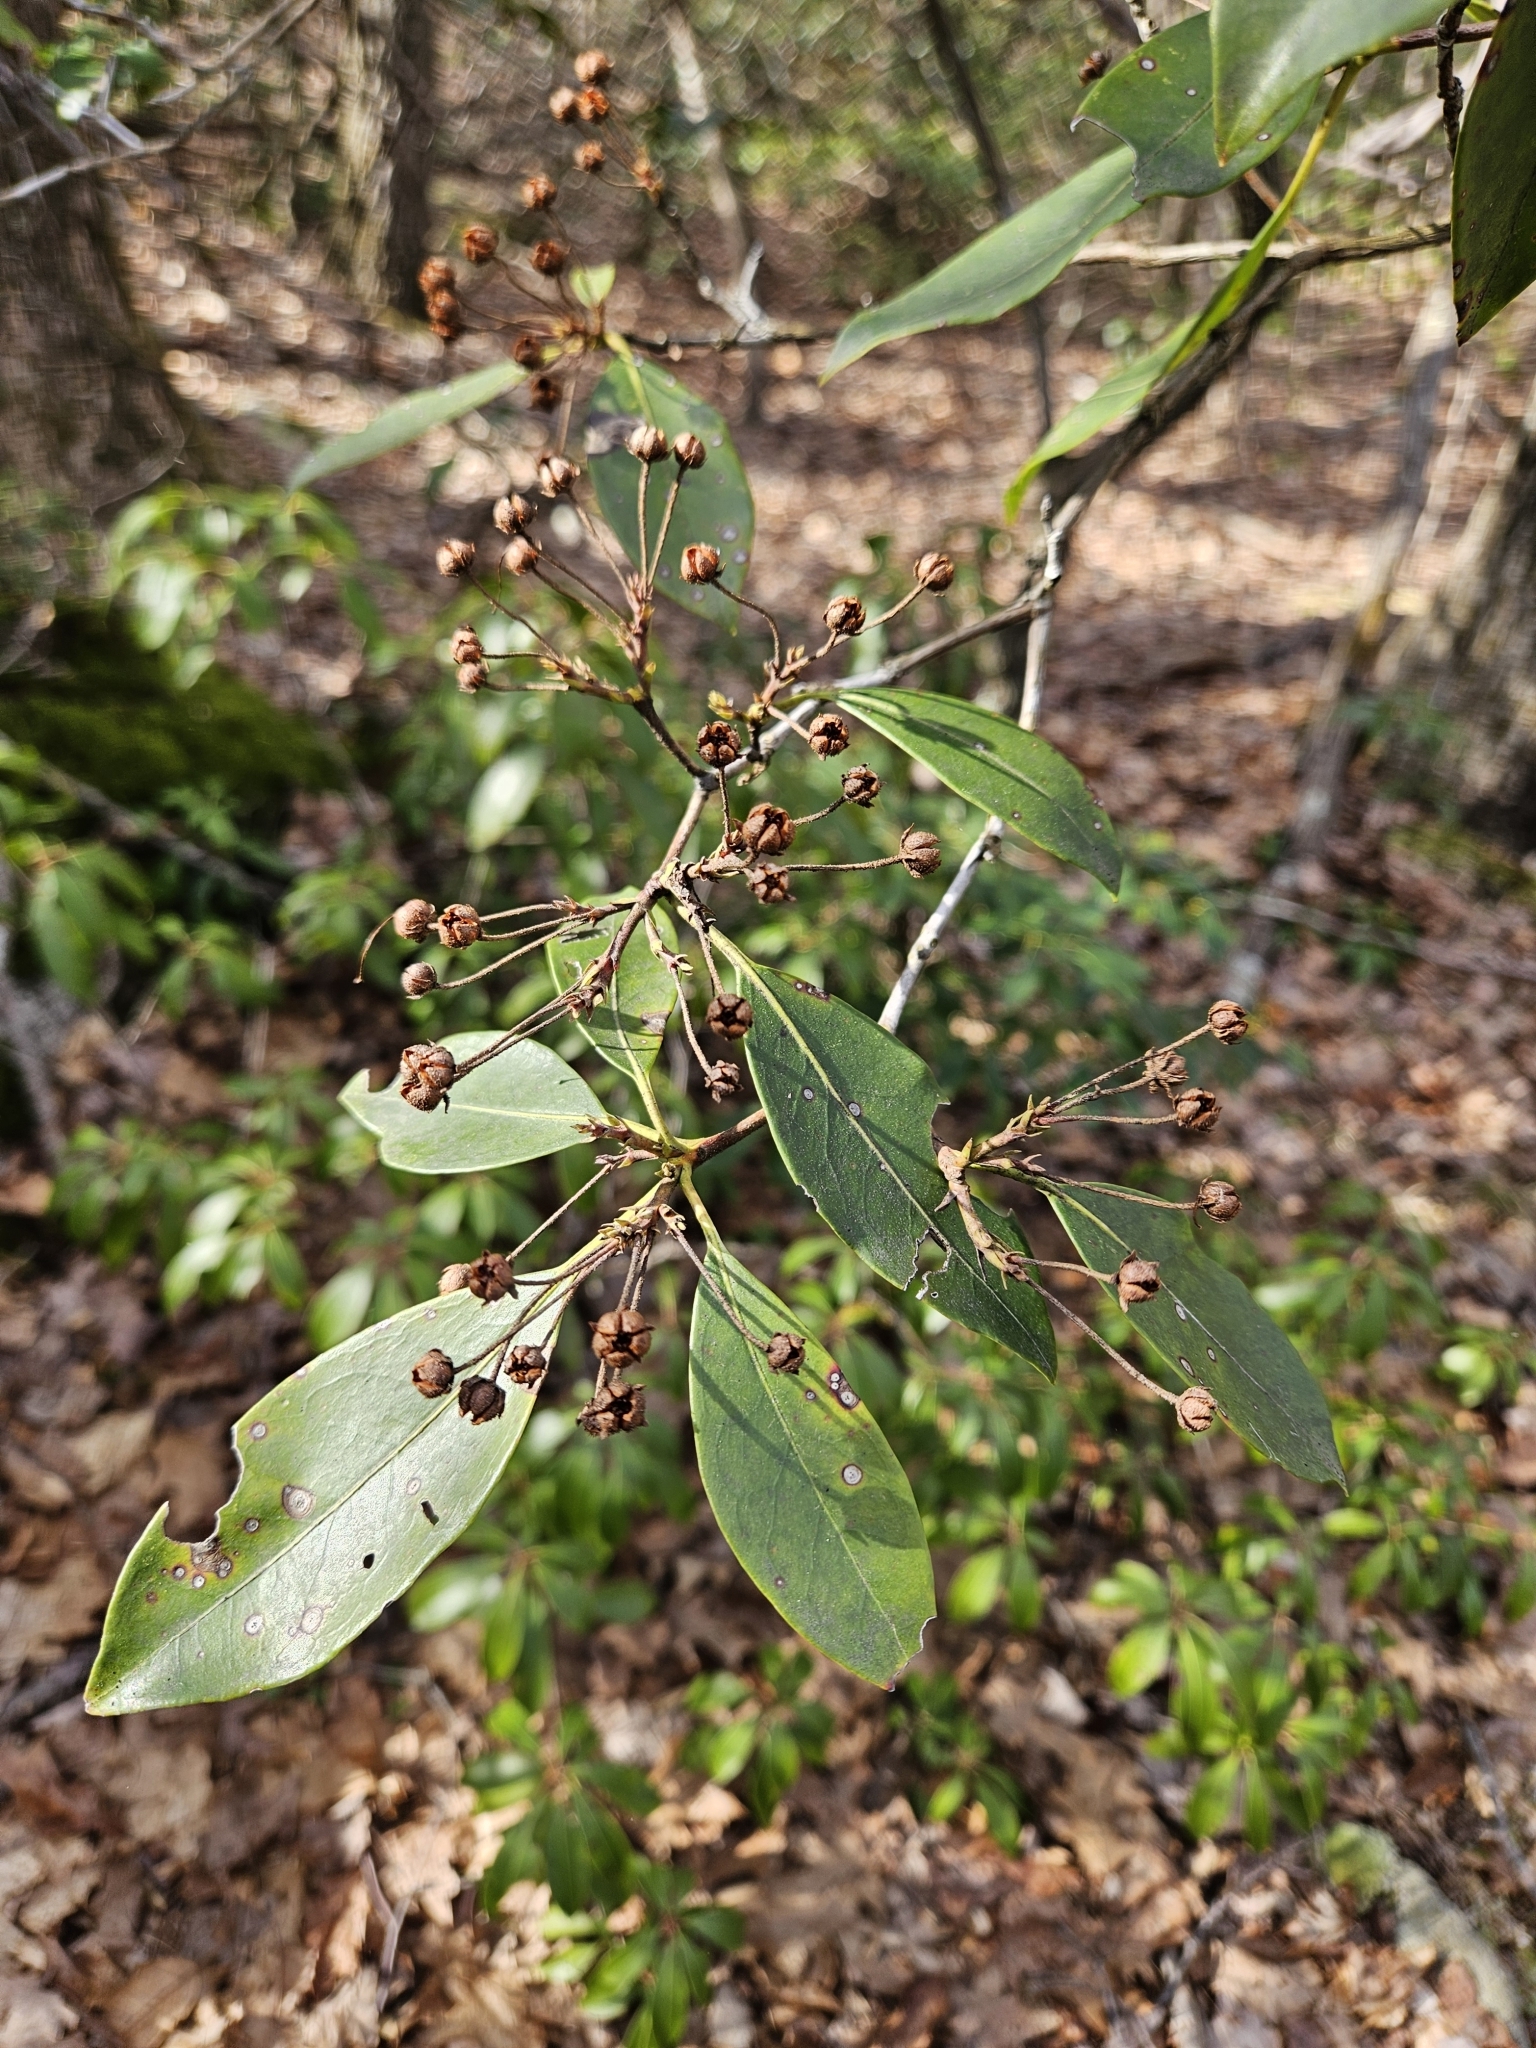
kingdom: Plantae
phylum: Tracheophyta
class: Magnoliopsida
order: Ericales
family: Ericaceae
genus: Kalmia
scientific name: Kalmia latifolia
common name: Mountain-laurel
